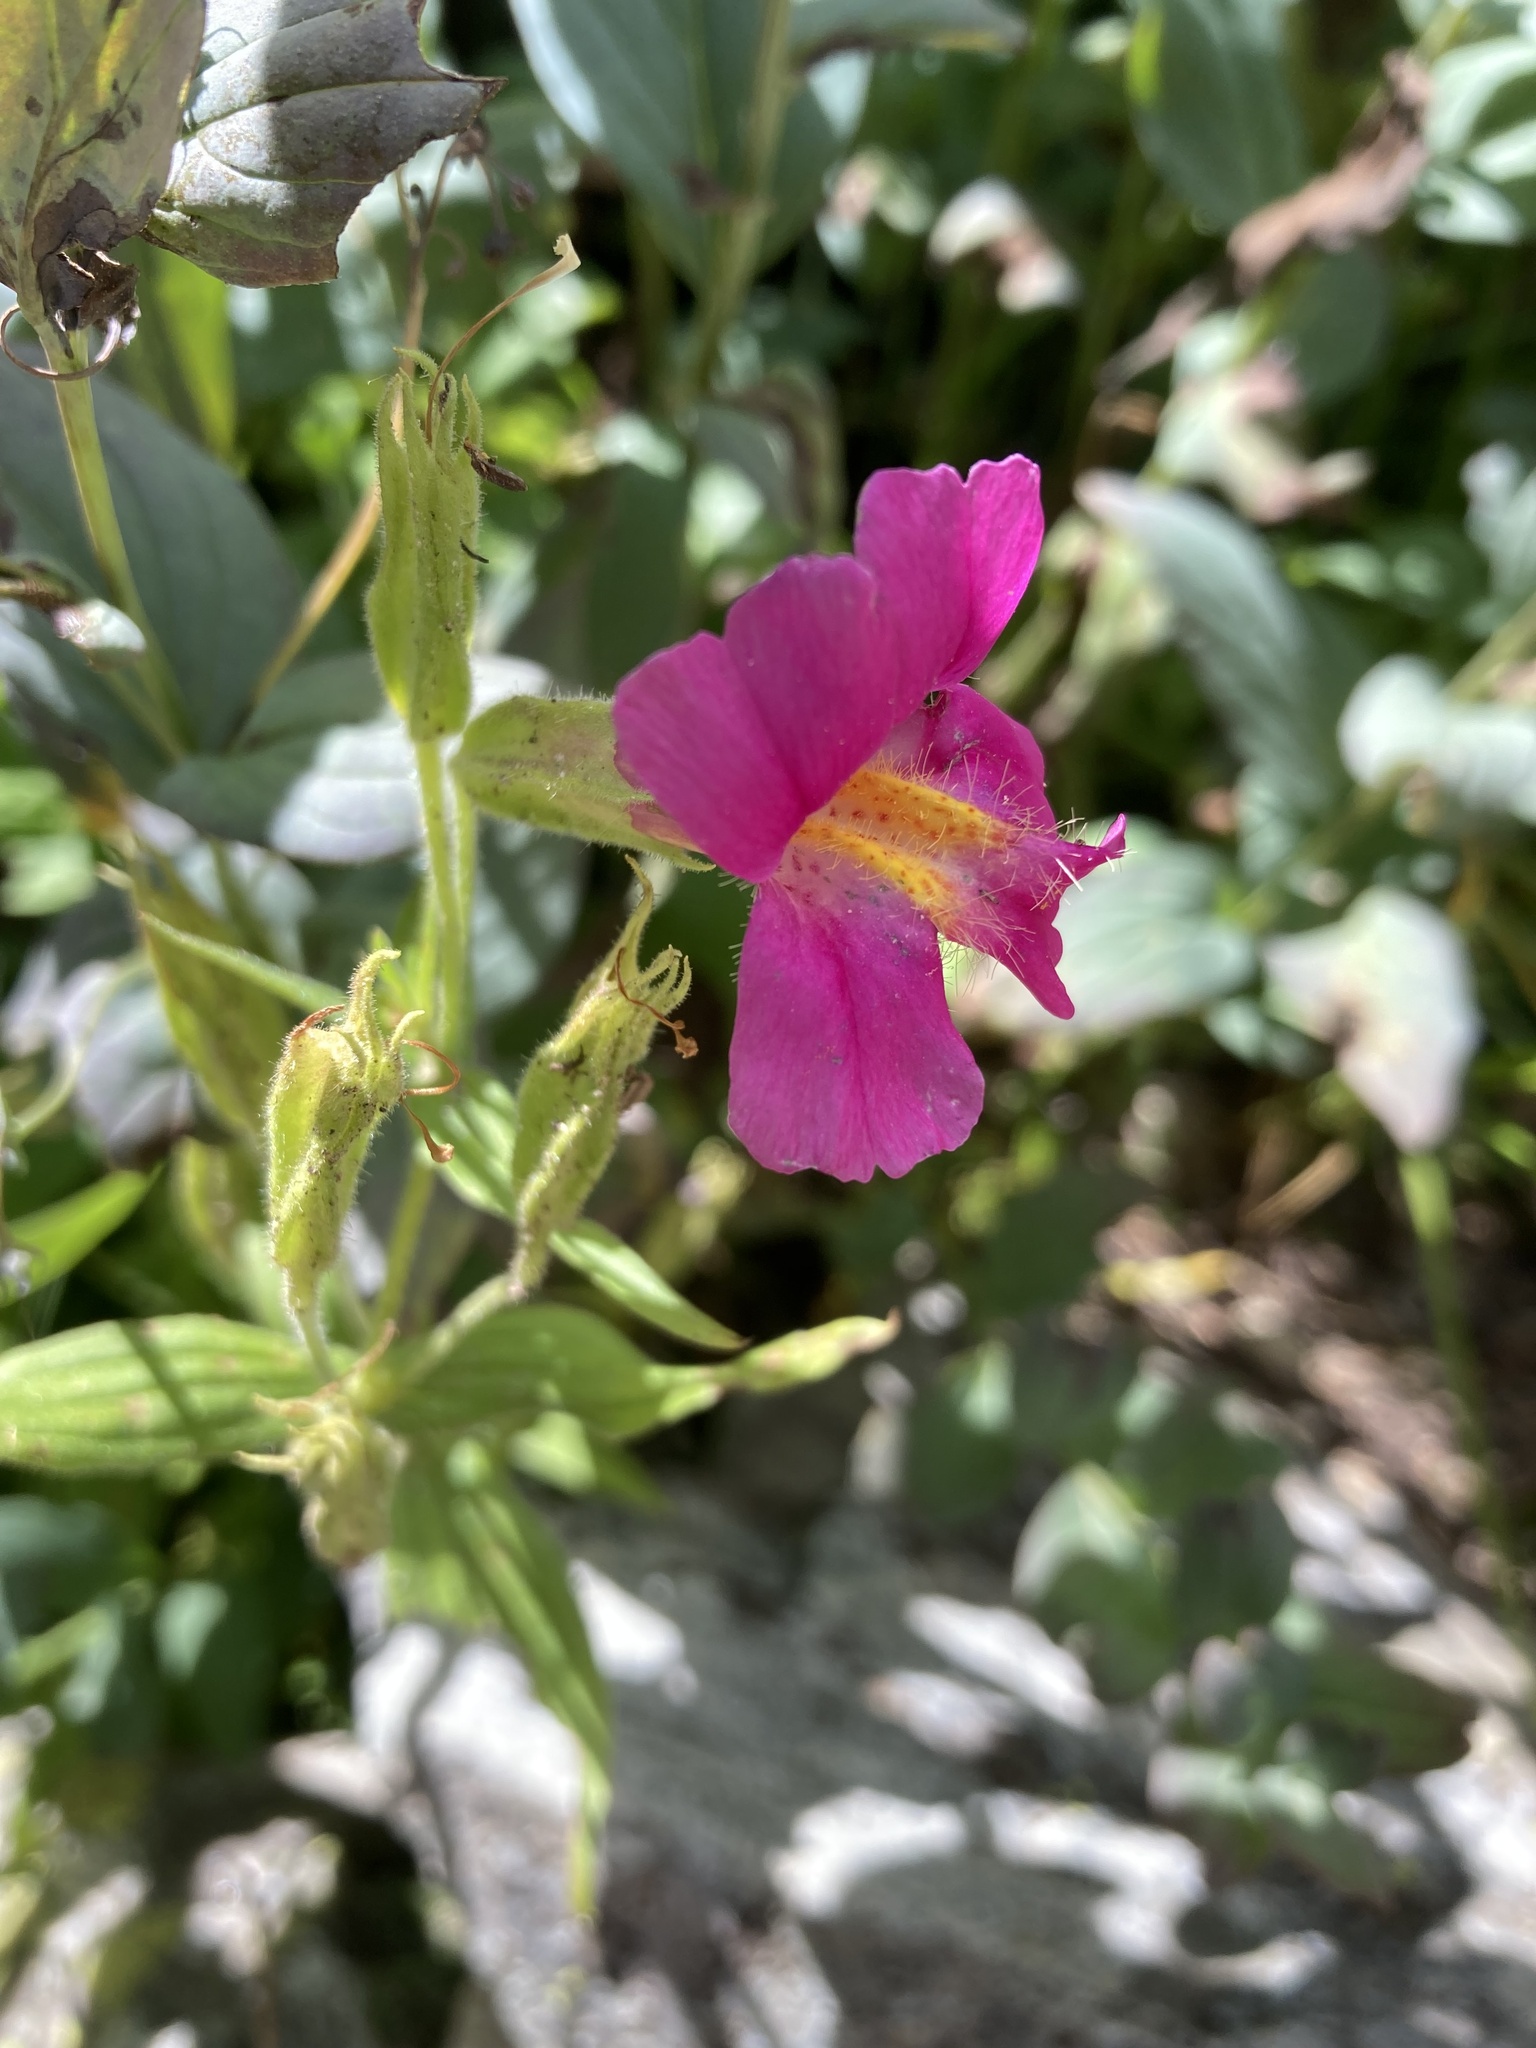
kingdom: Plantae
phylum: Tracheophyta
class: Magnoliopsida
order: Lamiales
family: Phrymaceae
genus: Erythranthe
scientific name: Erythranthe lewisii
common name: Lewis's monkey-flower
